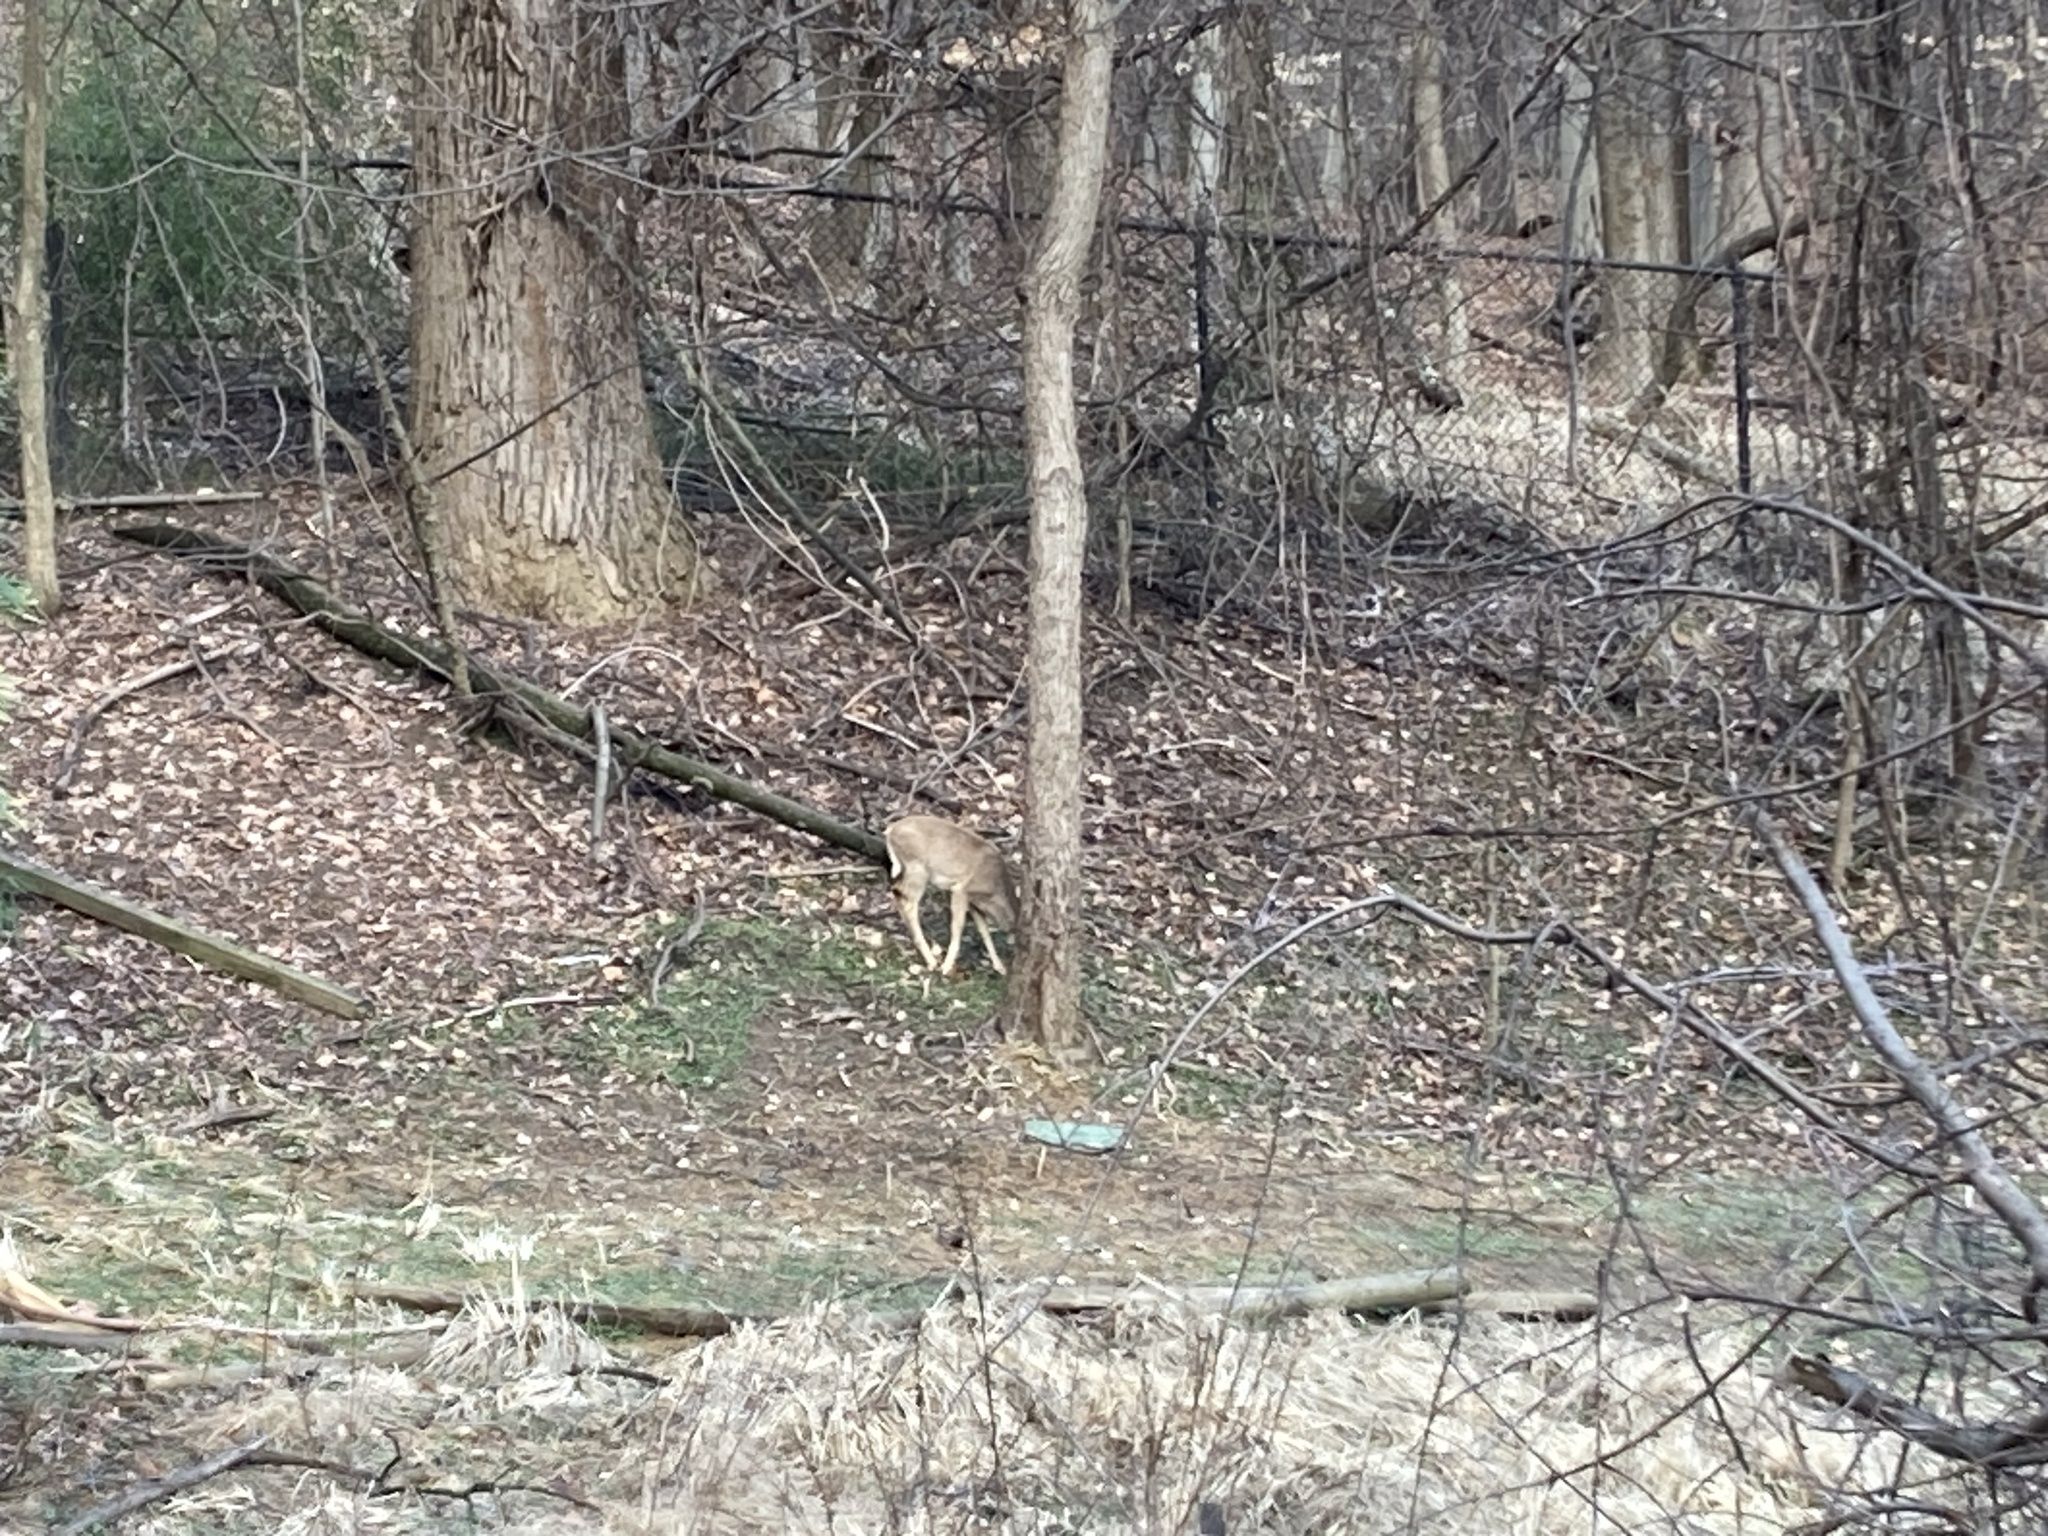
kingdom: Animalia
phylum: Chordata
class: Mammalia
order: Artiodactyla
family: Cervidae
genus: Odocoileus
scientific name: Odocoileus virginianus
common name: White-tailed deer
